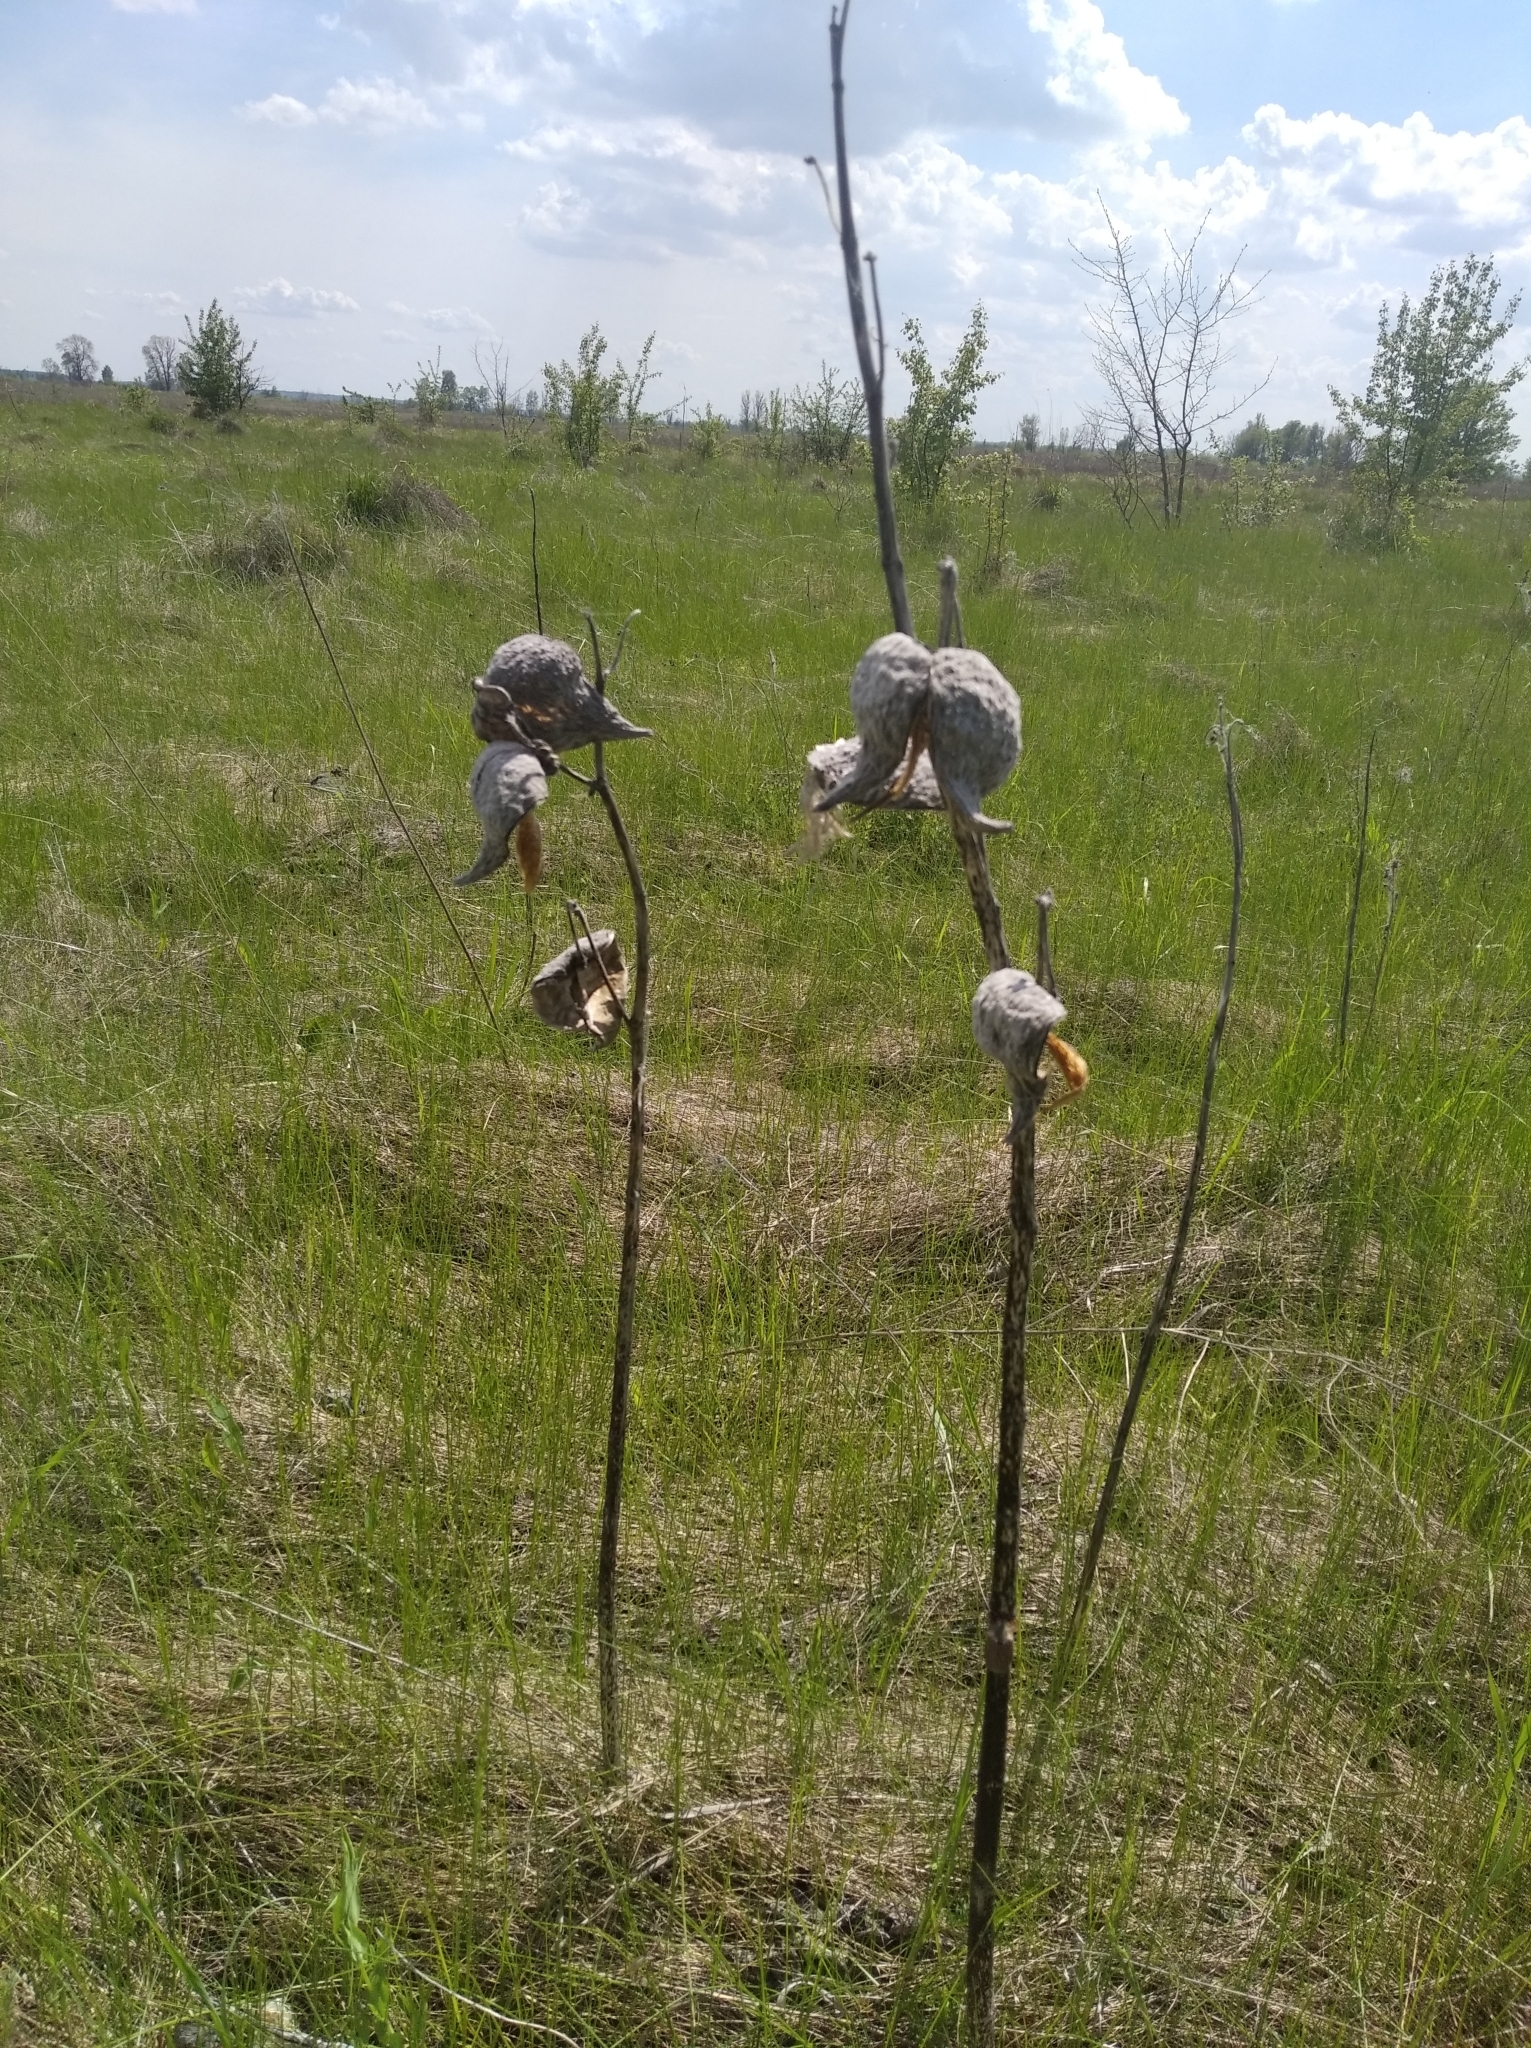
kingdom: Plantae
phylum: Tracheophyta
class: Magnoliopsida
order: Gentianales
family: Apocynaceae
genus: Asclepias
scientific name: Asclepias syriaca
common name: Common milkweed
